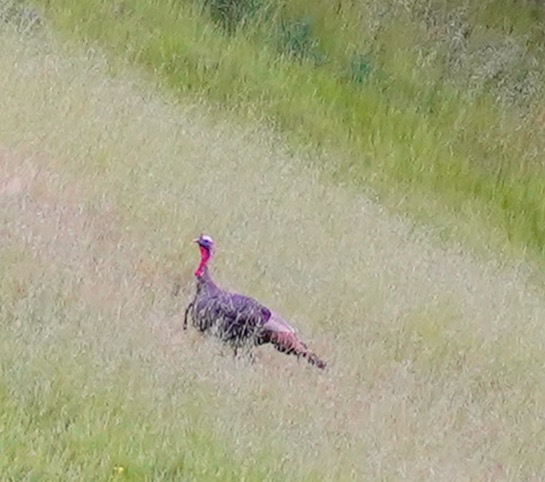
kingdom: Animalia
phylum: Chordata
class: Aves
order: Galliformes
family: Phasianidae
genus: Meleagris
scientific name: Meleagris gallopavo
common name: Wild turkey
